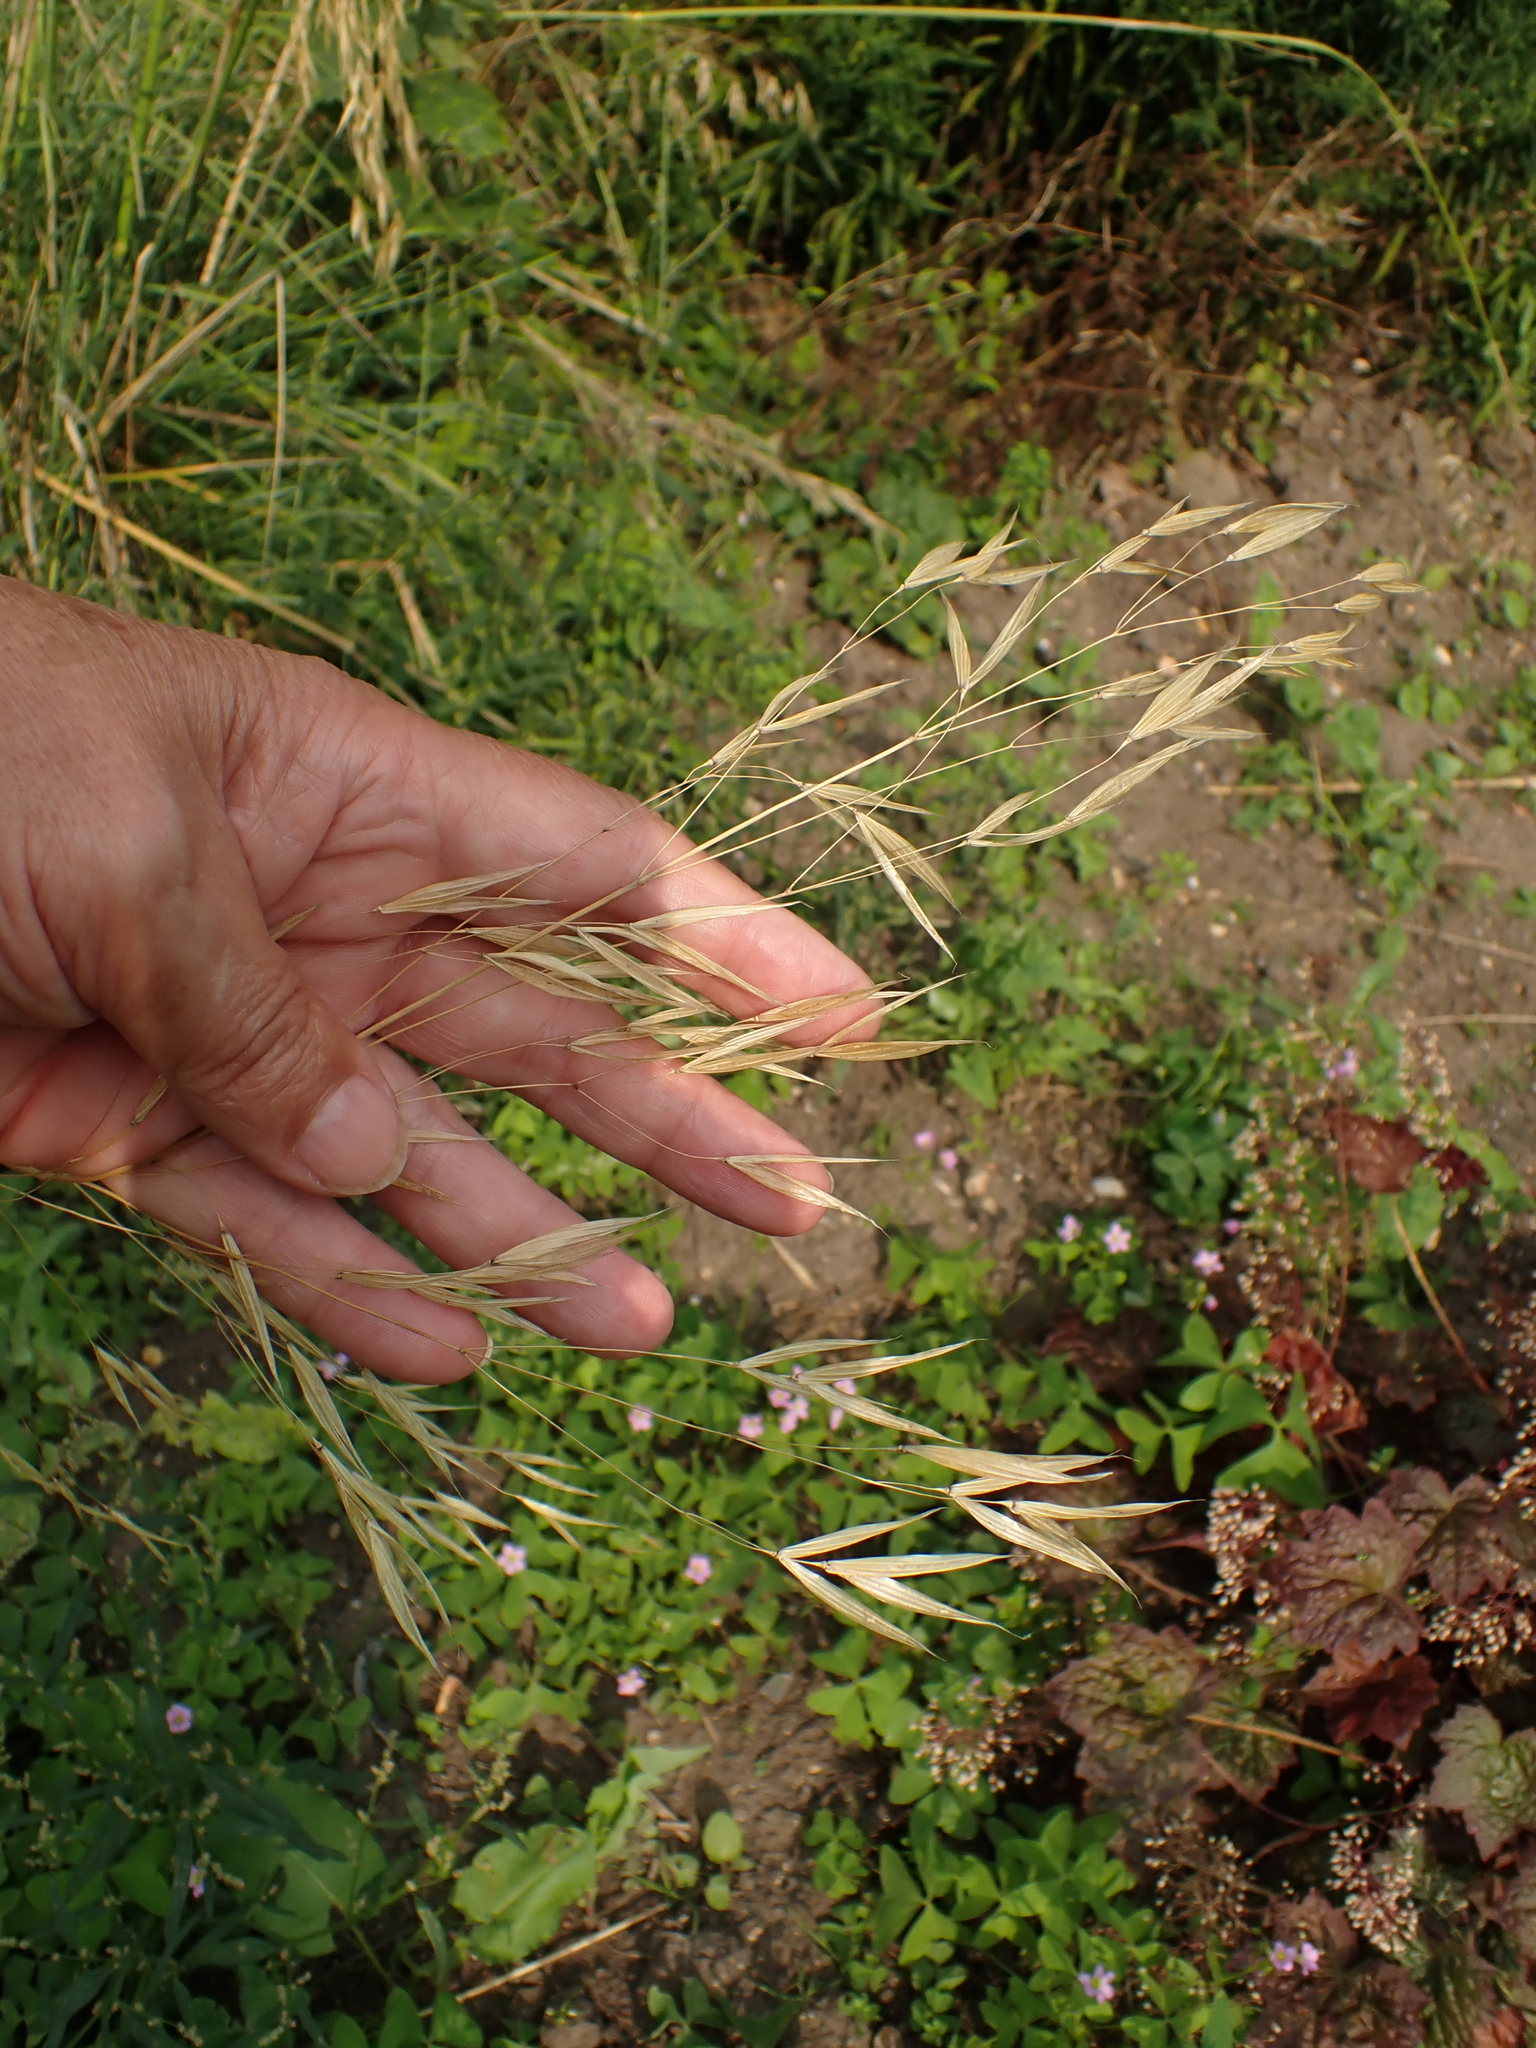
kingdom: Plantae
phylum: Tracheophyta
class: Liliopsida
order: Poales
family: Poaceae
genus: Celtica
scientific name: Celtica gigantea
